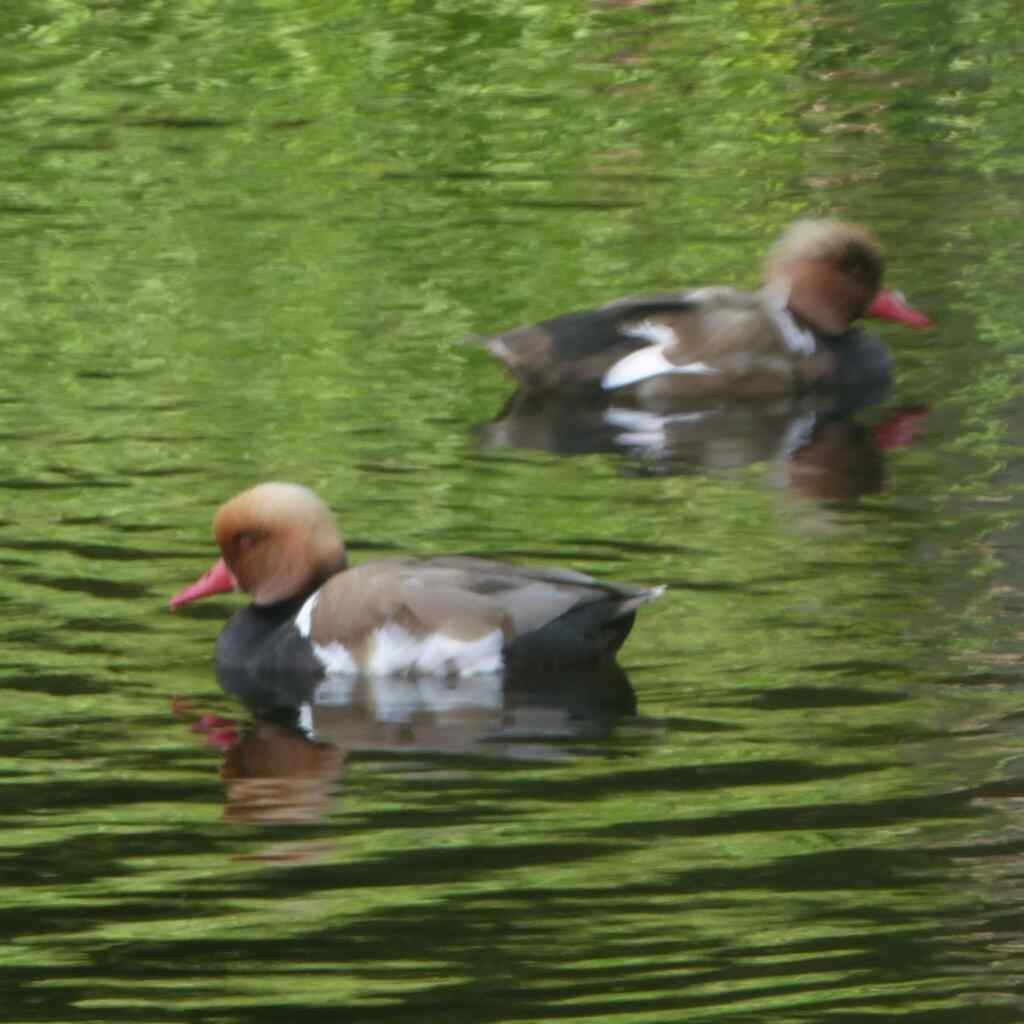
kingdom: Animalia
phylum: Chordata
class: Aves
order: Anseriformes
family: Anatidae
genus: Netta
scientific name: Netta rufina
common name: Red-crested pochard
